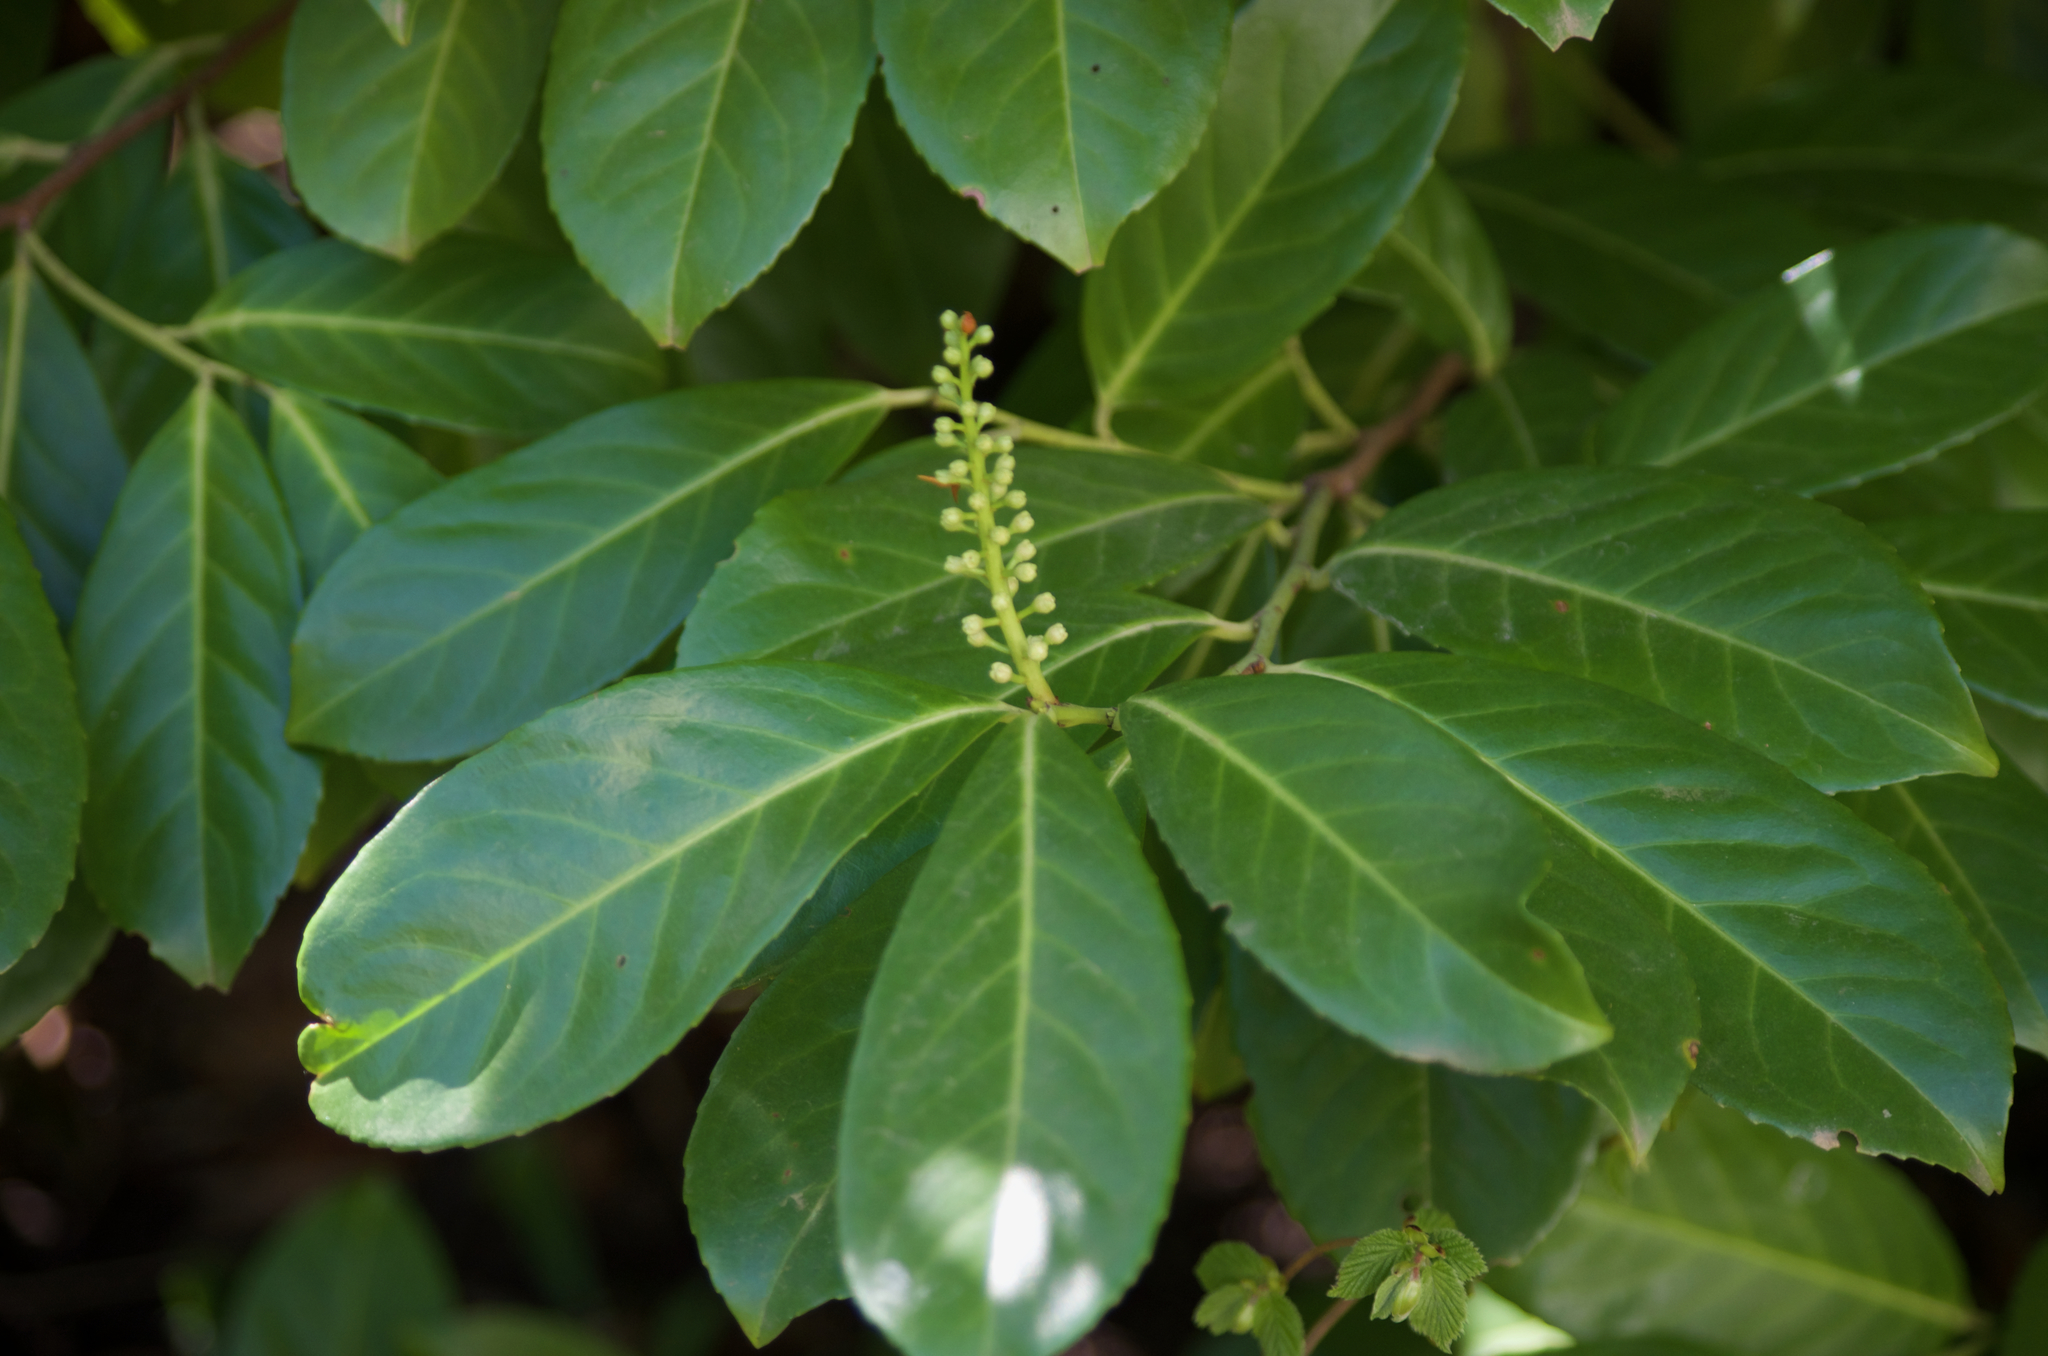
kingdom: Plantae
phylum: Tracheophyta
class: Magnoliopsida
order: Rosales
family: Rosaceae
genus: Prunus
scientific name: Prunus laurocerasus
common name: Cherry laurel
